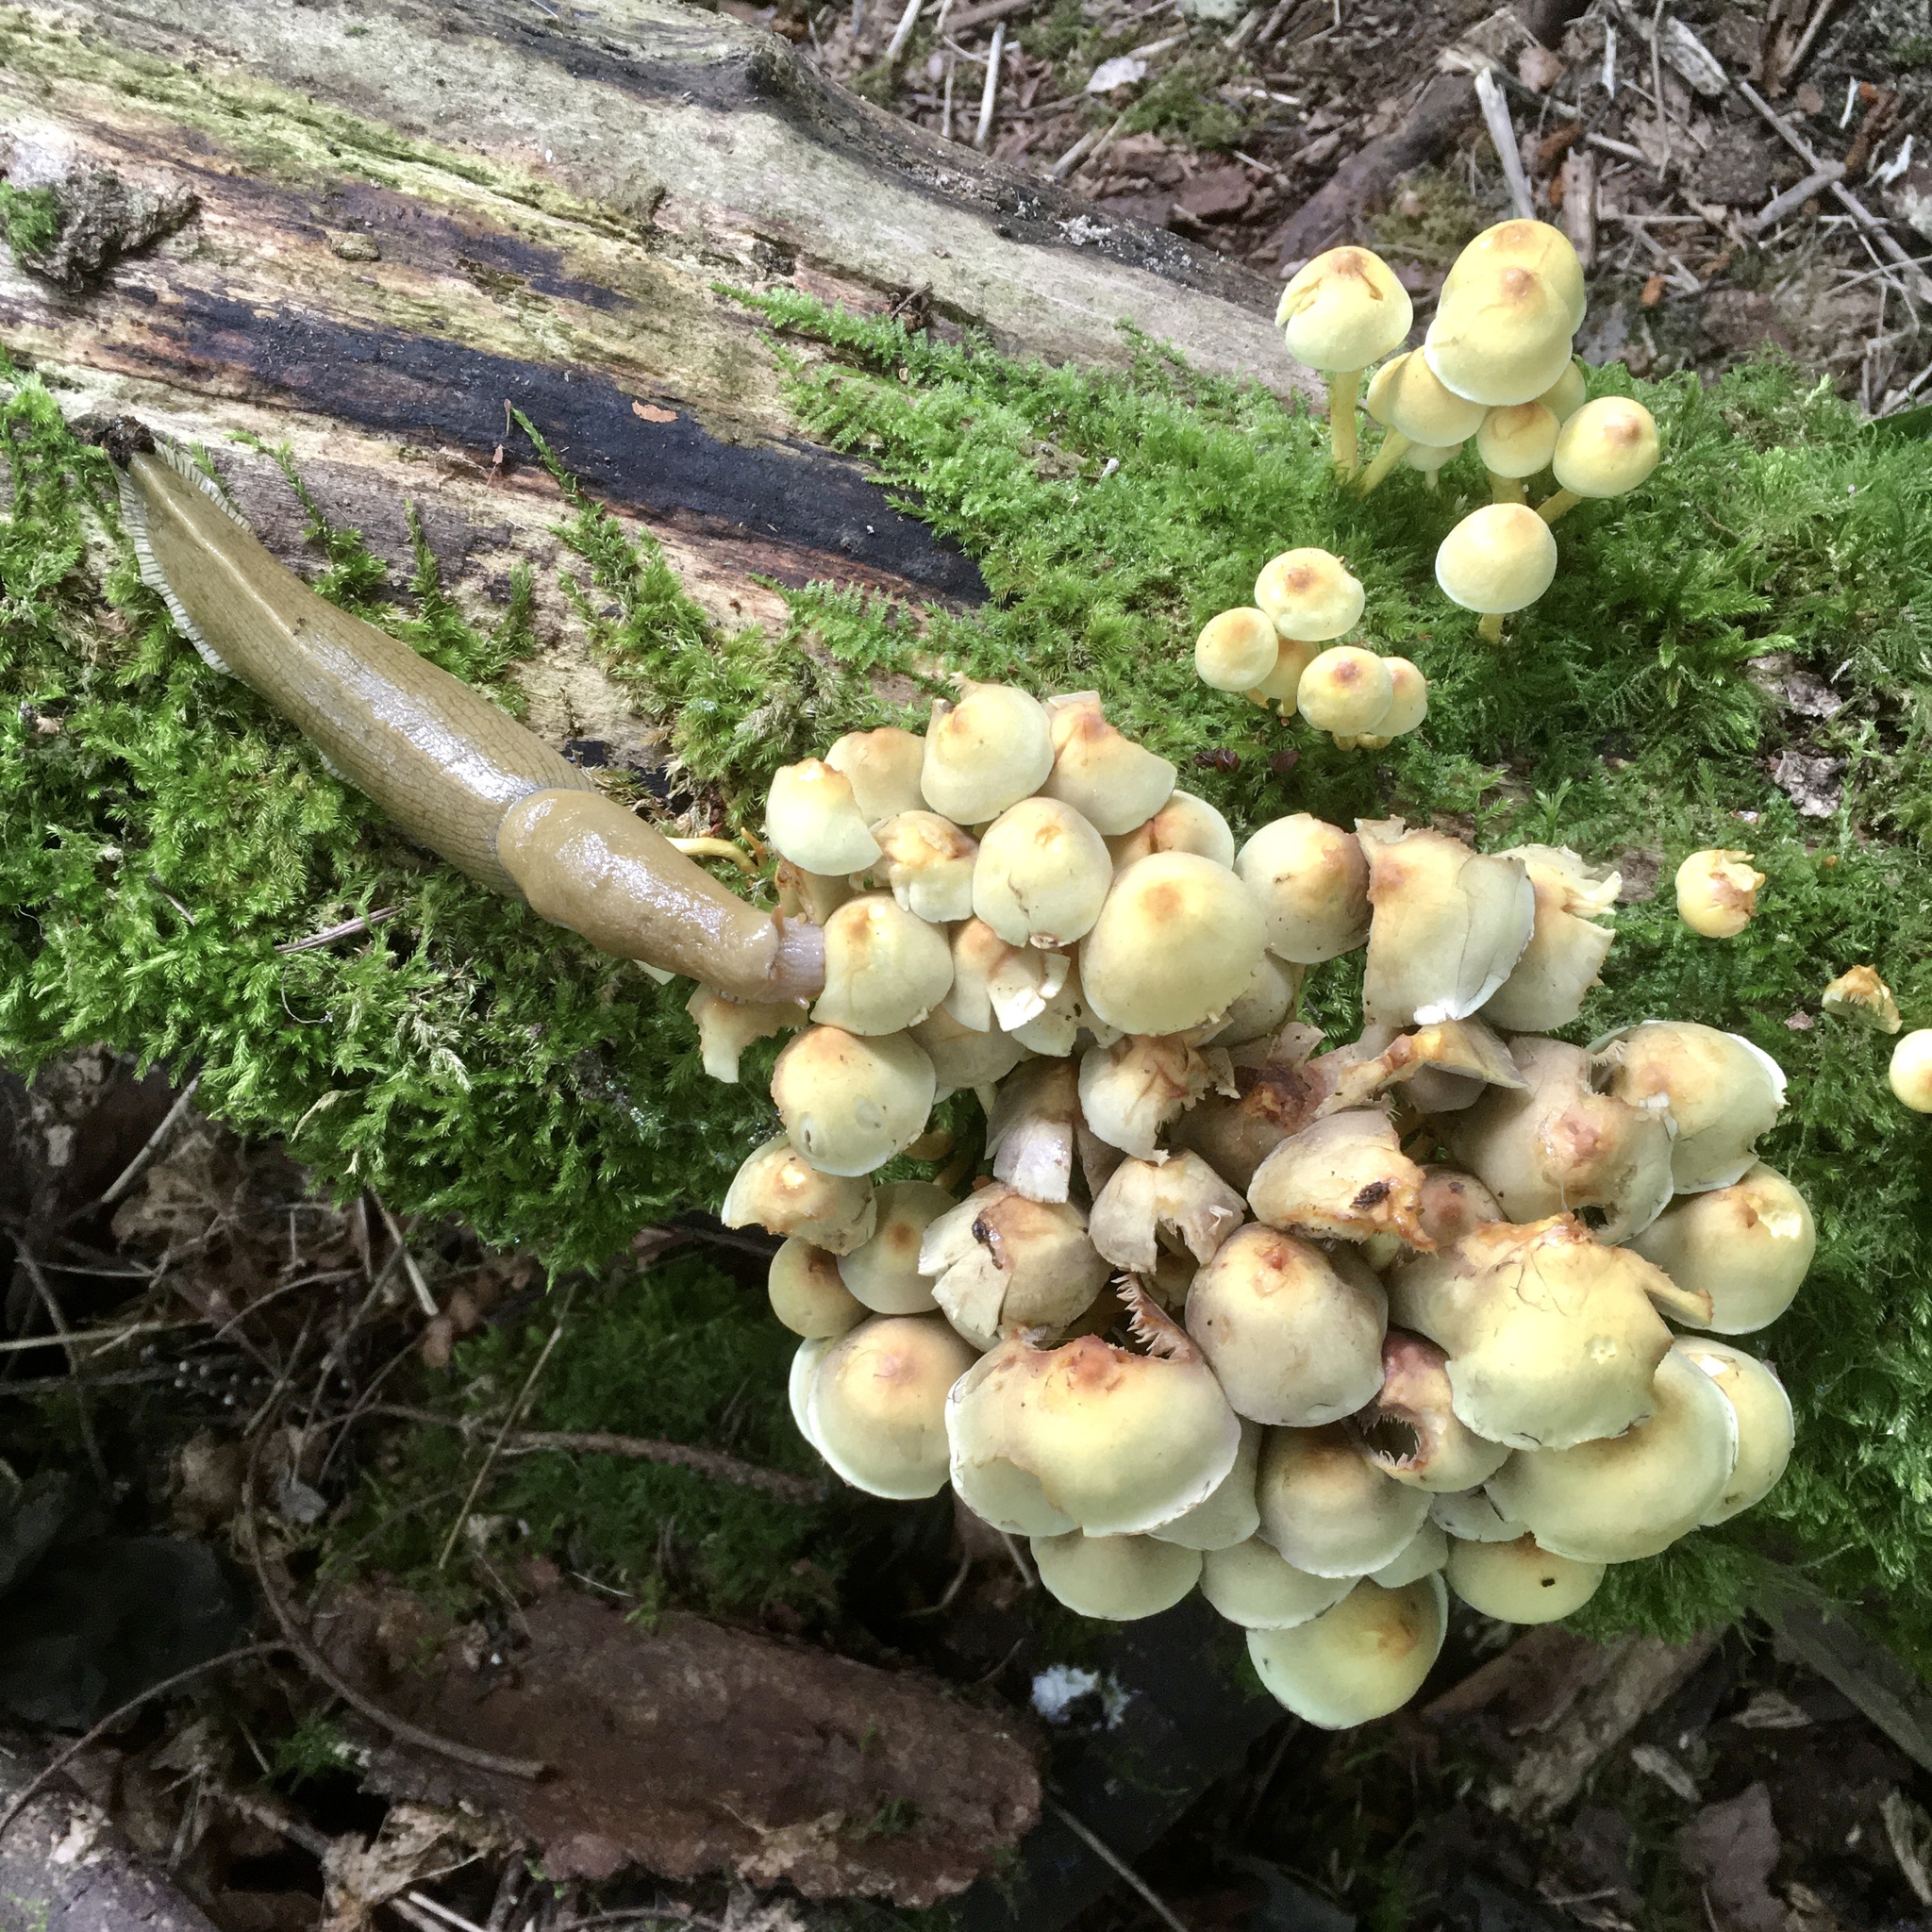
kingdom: Animalia
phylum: Mollusca
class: Gastropoda
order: Stylommatophora
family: Ariolimacidae
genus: Ariolimax
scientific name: Ariolimax columbianus
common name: Pacific banana slug
